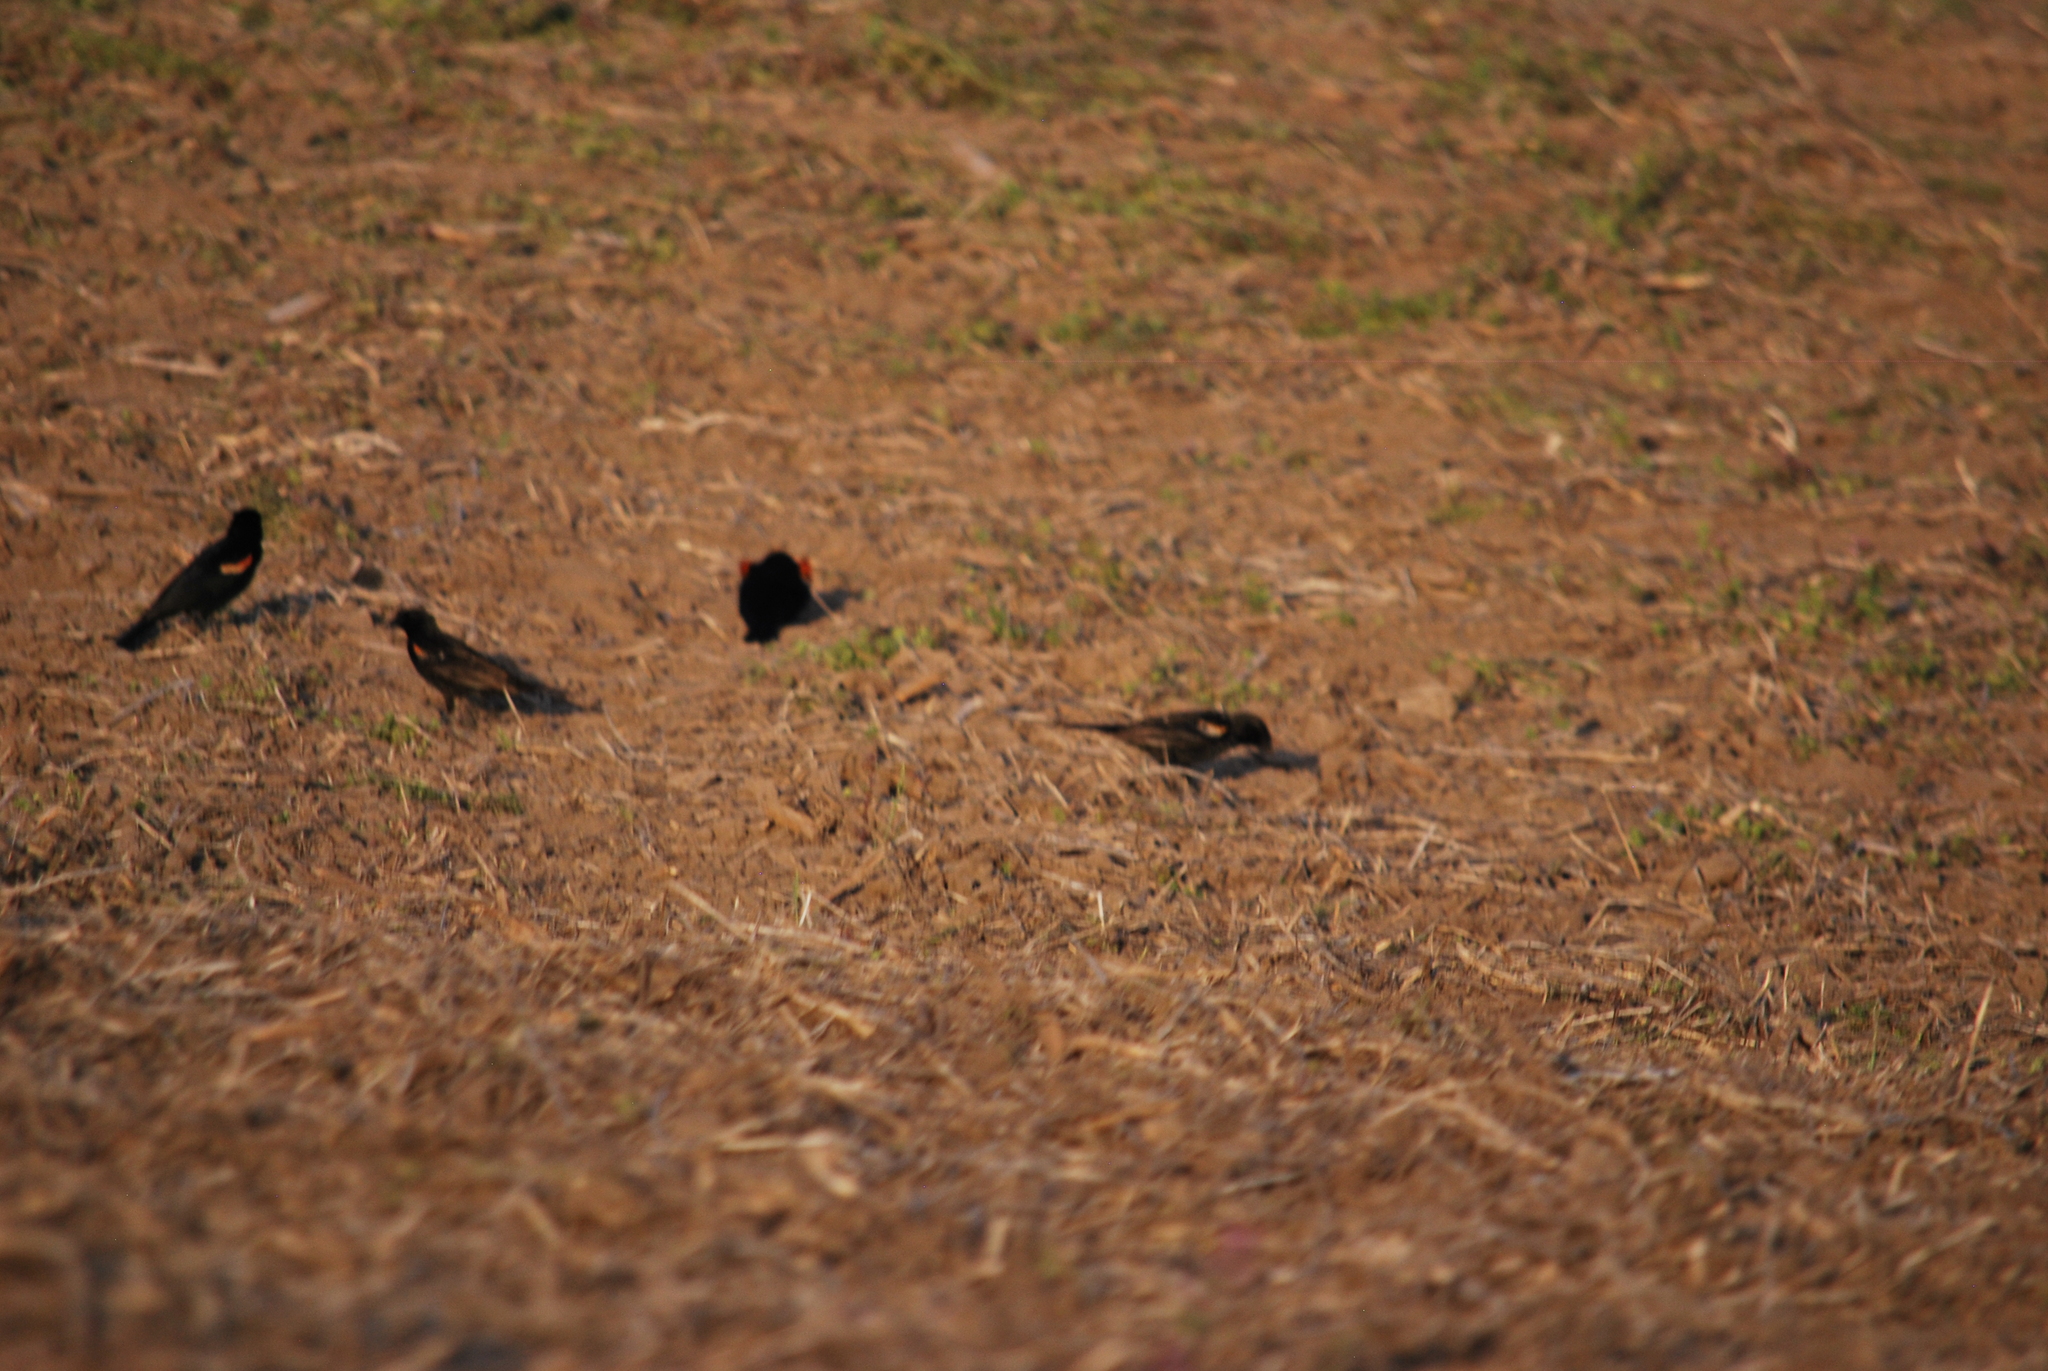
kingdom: Animalia
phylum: Chordata
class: Aves
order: Passeriformes
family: Icteridae
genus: Agelaius
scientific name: Agelaius phoeniceus
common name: Red-winged blackbird
